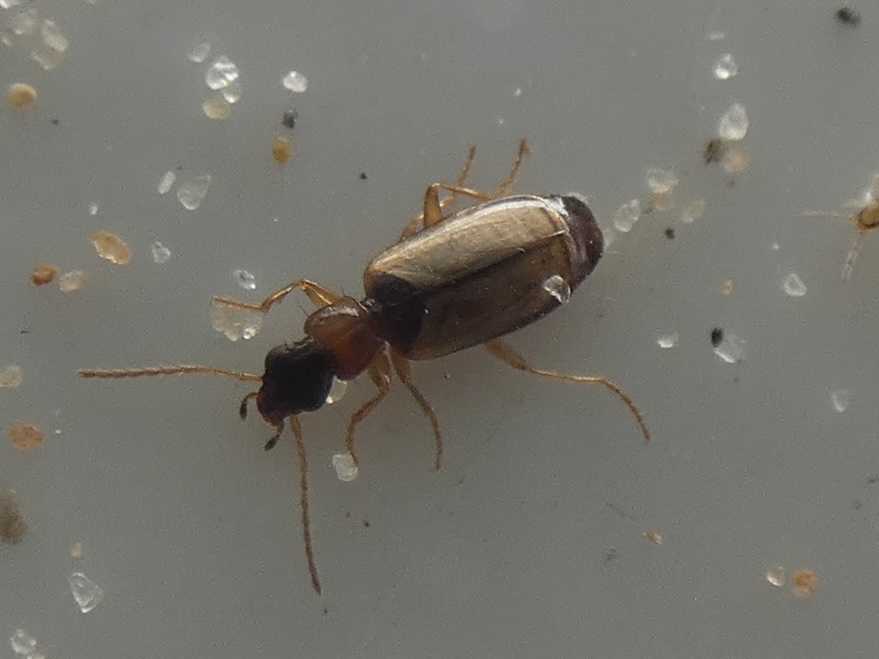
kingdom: Animalia
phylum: Arthropoda
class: Insecta
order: Coleoptera
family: Carabidae
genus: Philorhizus
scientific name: Philorhizus melanocephalus
